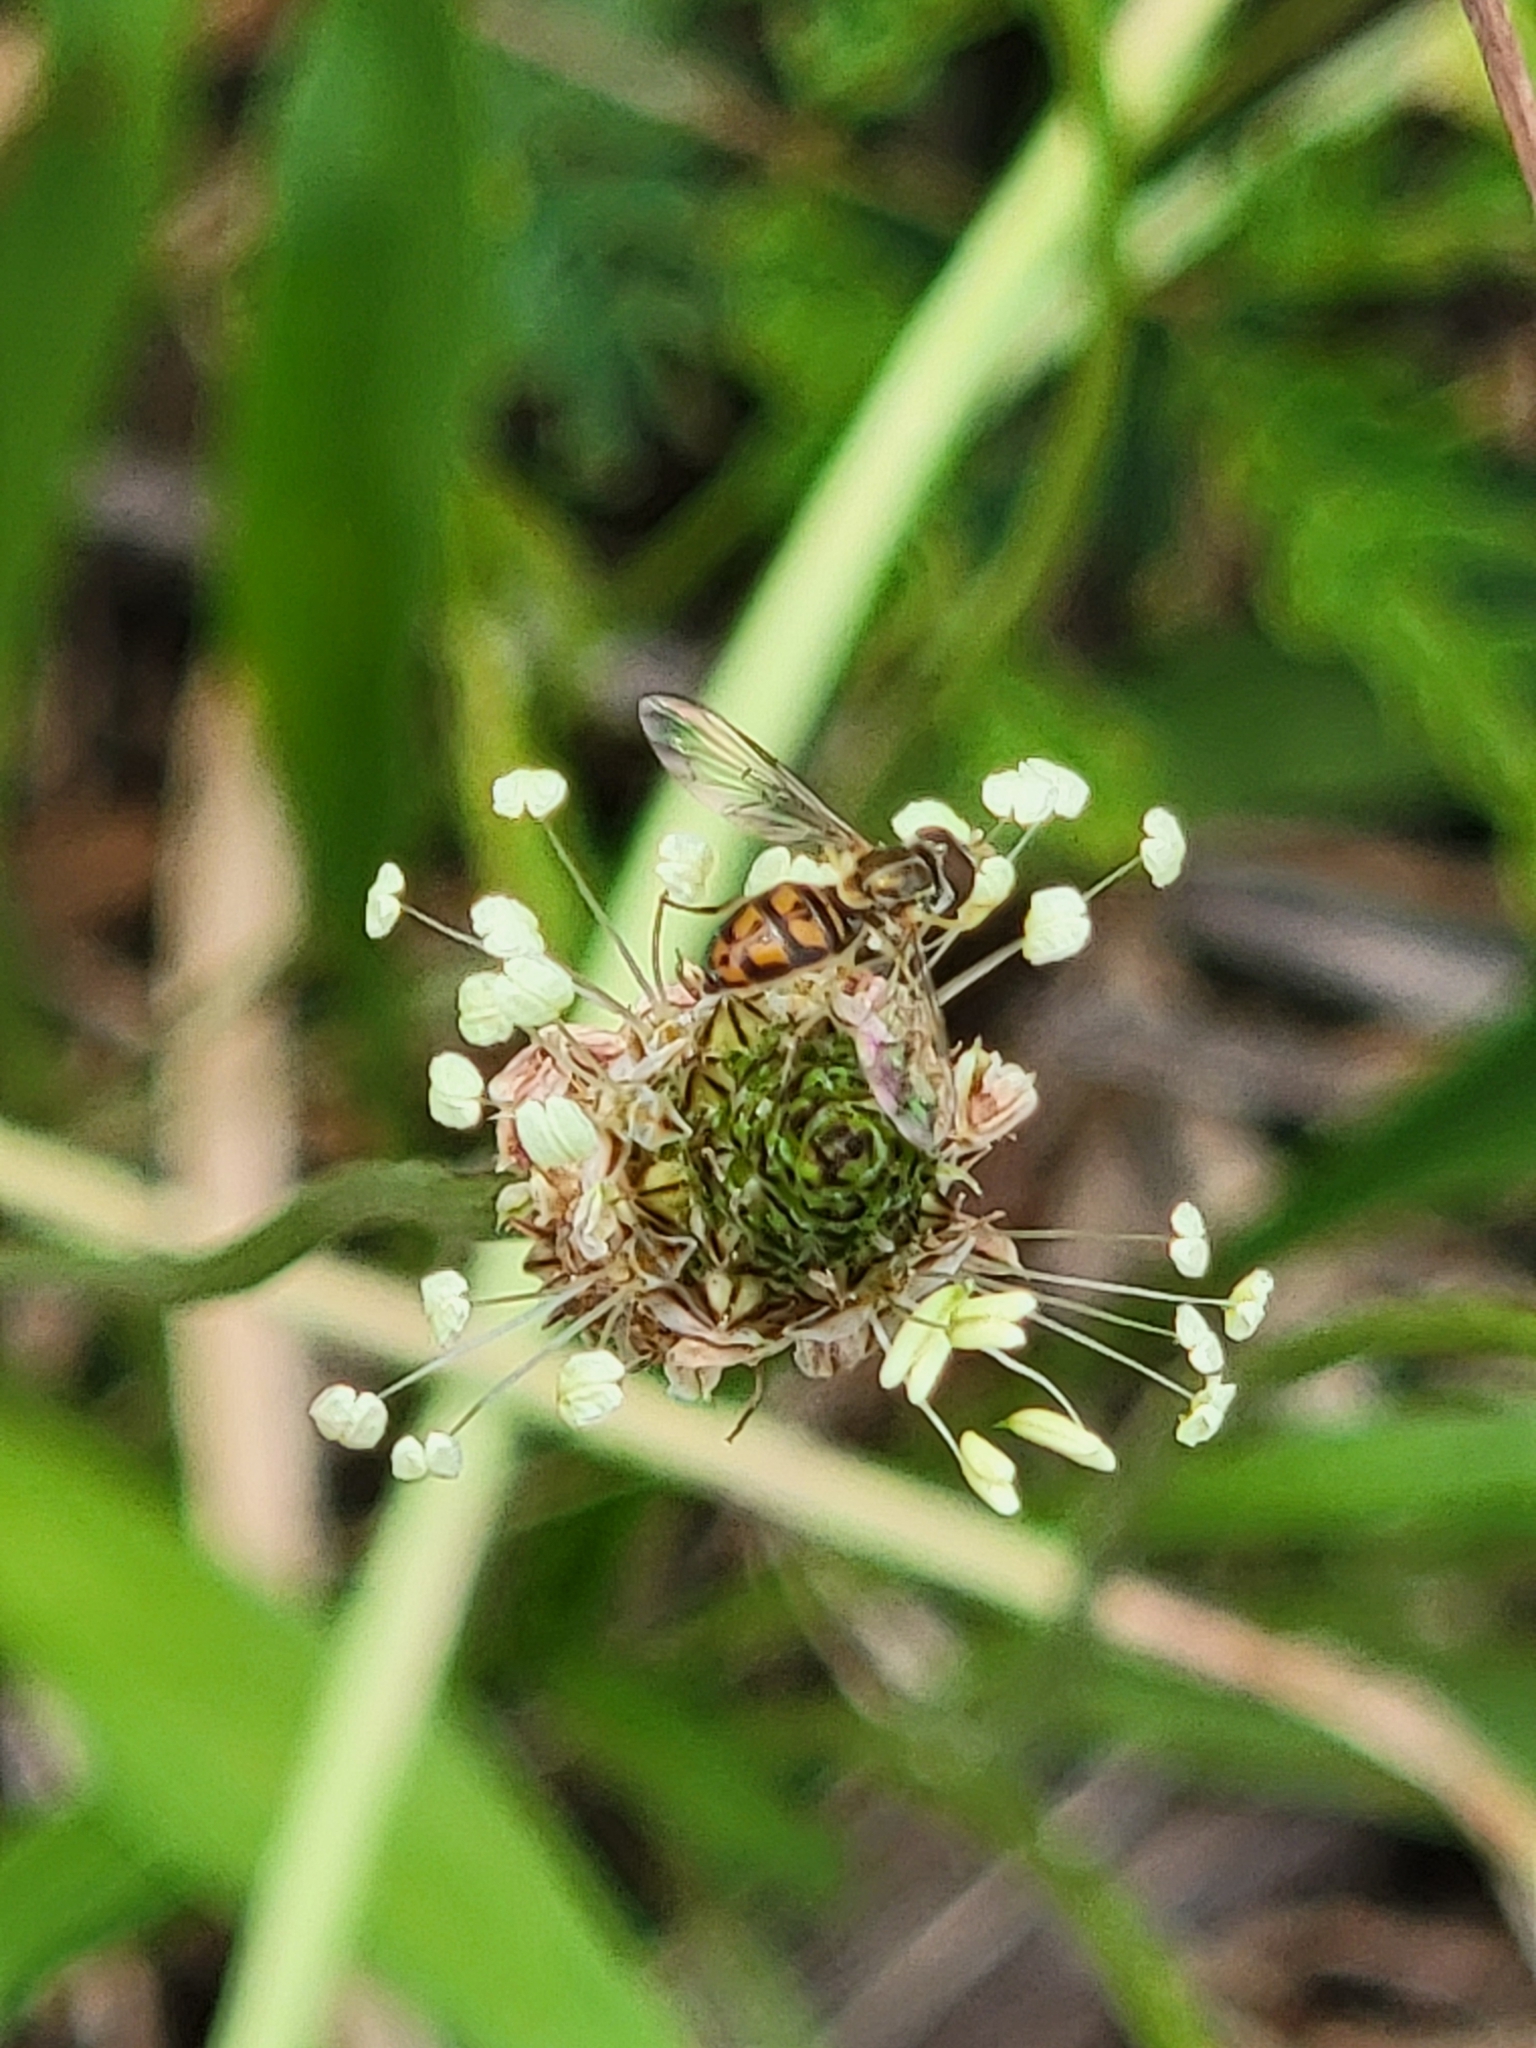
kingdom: Animalia
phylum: Arthropoda
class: Insecta
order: Diptera
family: Syrphidae
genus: Toxomerus
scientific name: Toxomerus marginatus
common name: Syrphid fly
